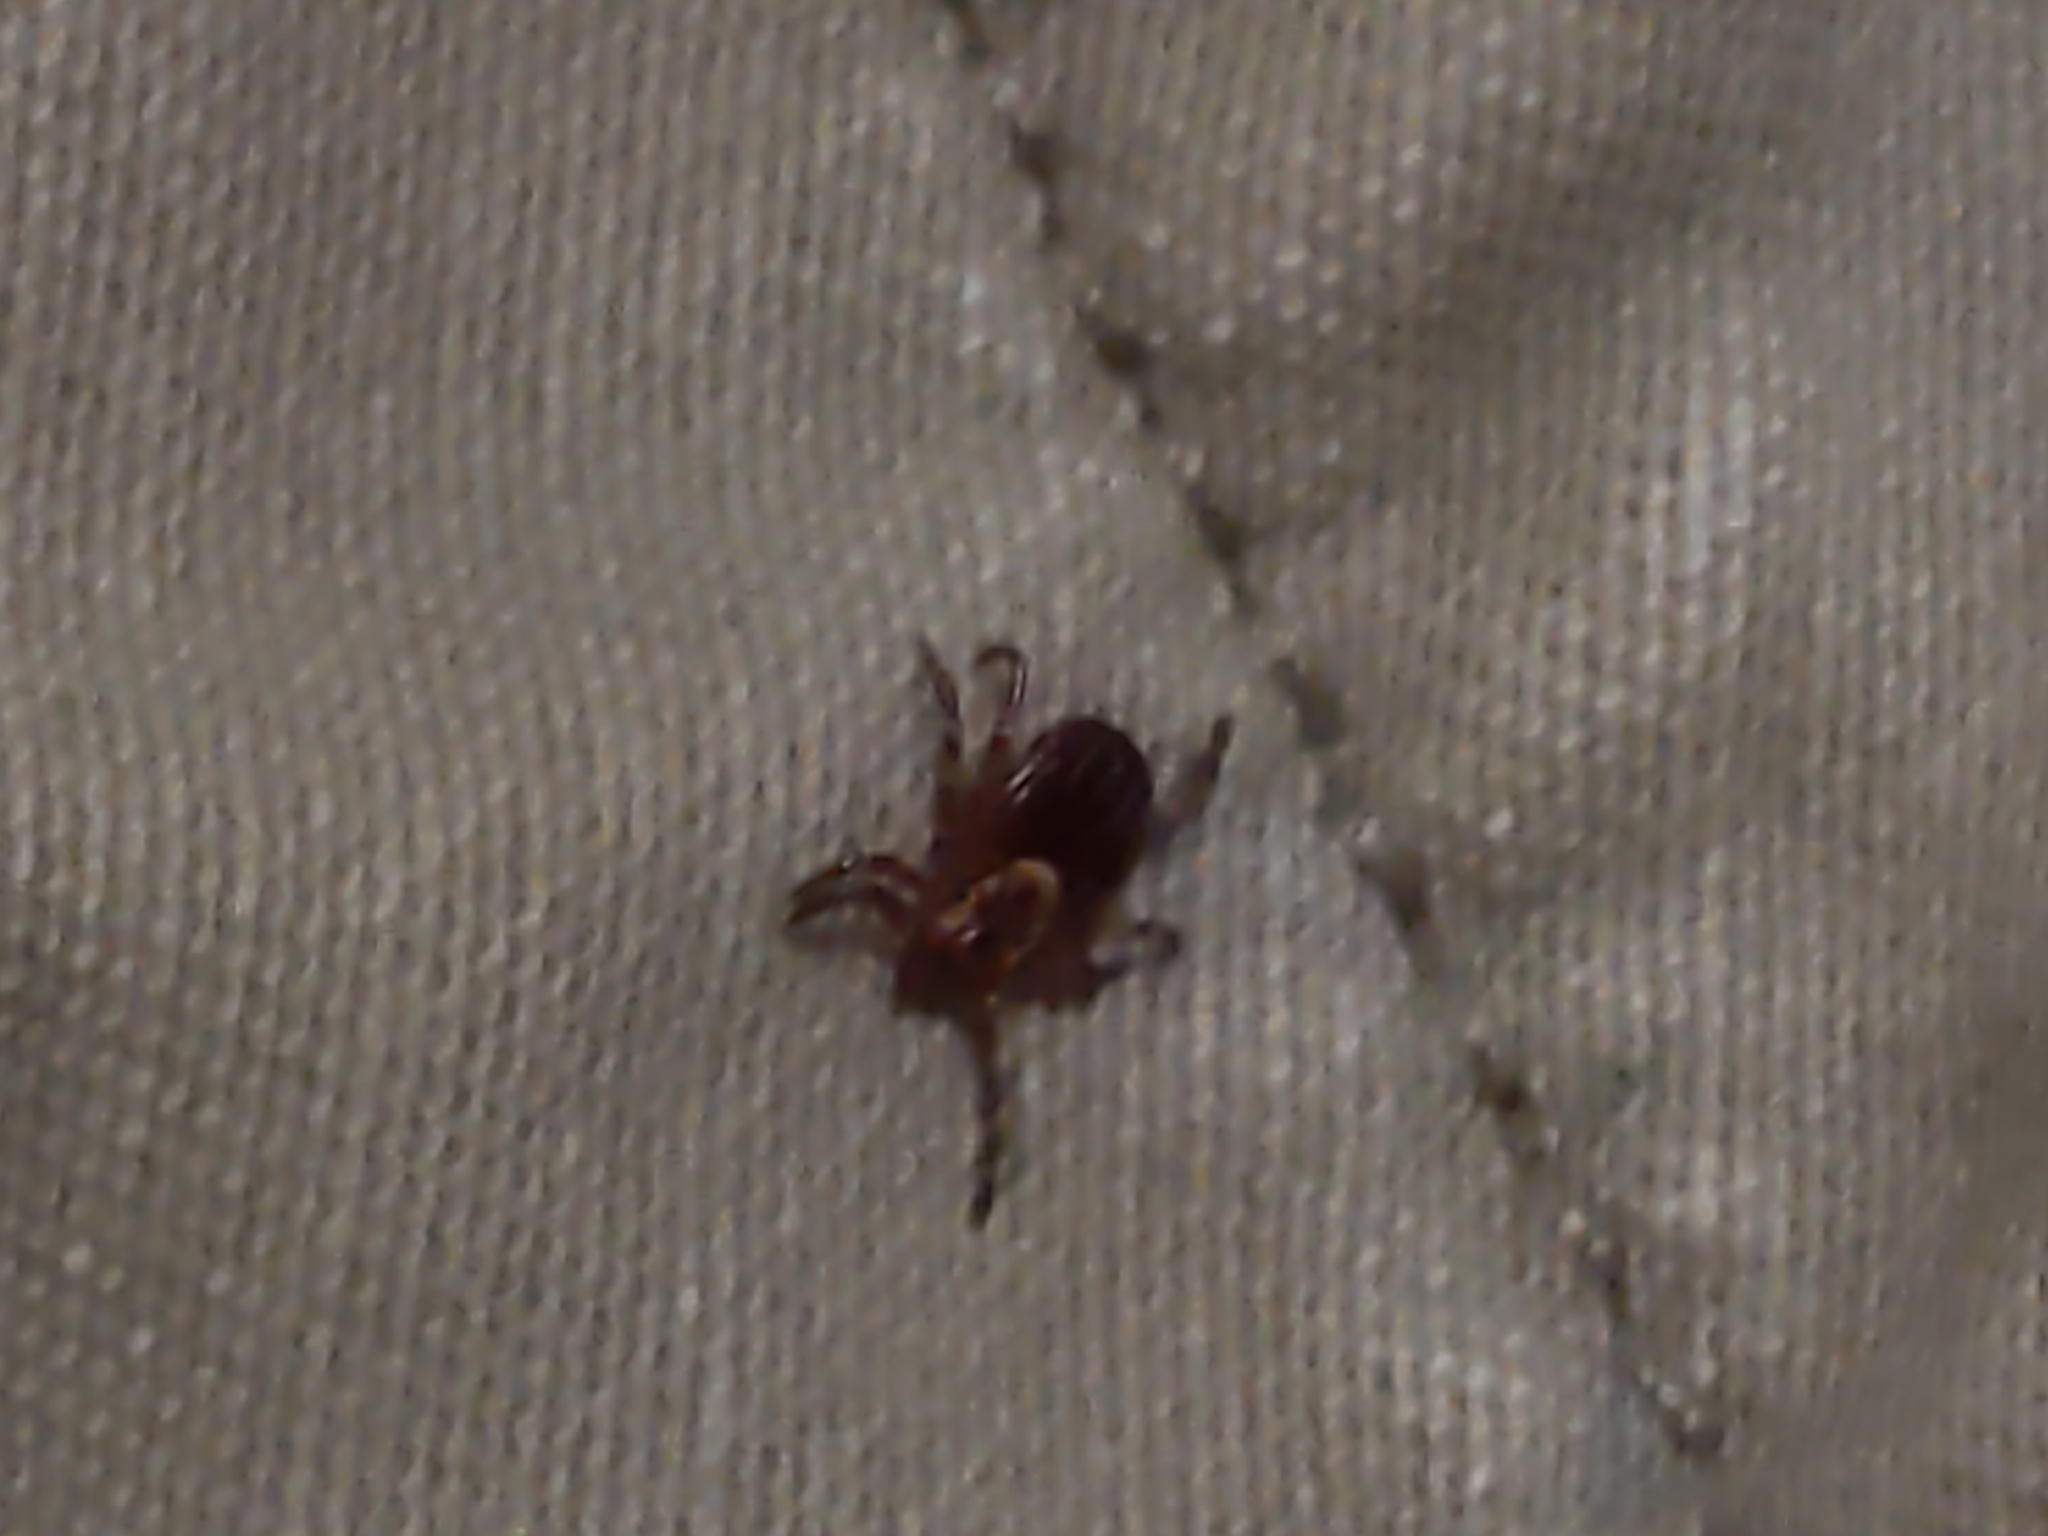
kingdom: Animalia
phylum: Arthropoda
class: Arachnida
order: Ixodida
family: Ixodidae
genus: Dermacentor
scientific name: Dermacentor variabilis
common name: American dog tick
